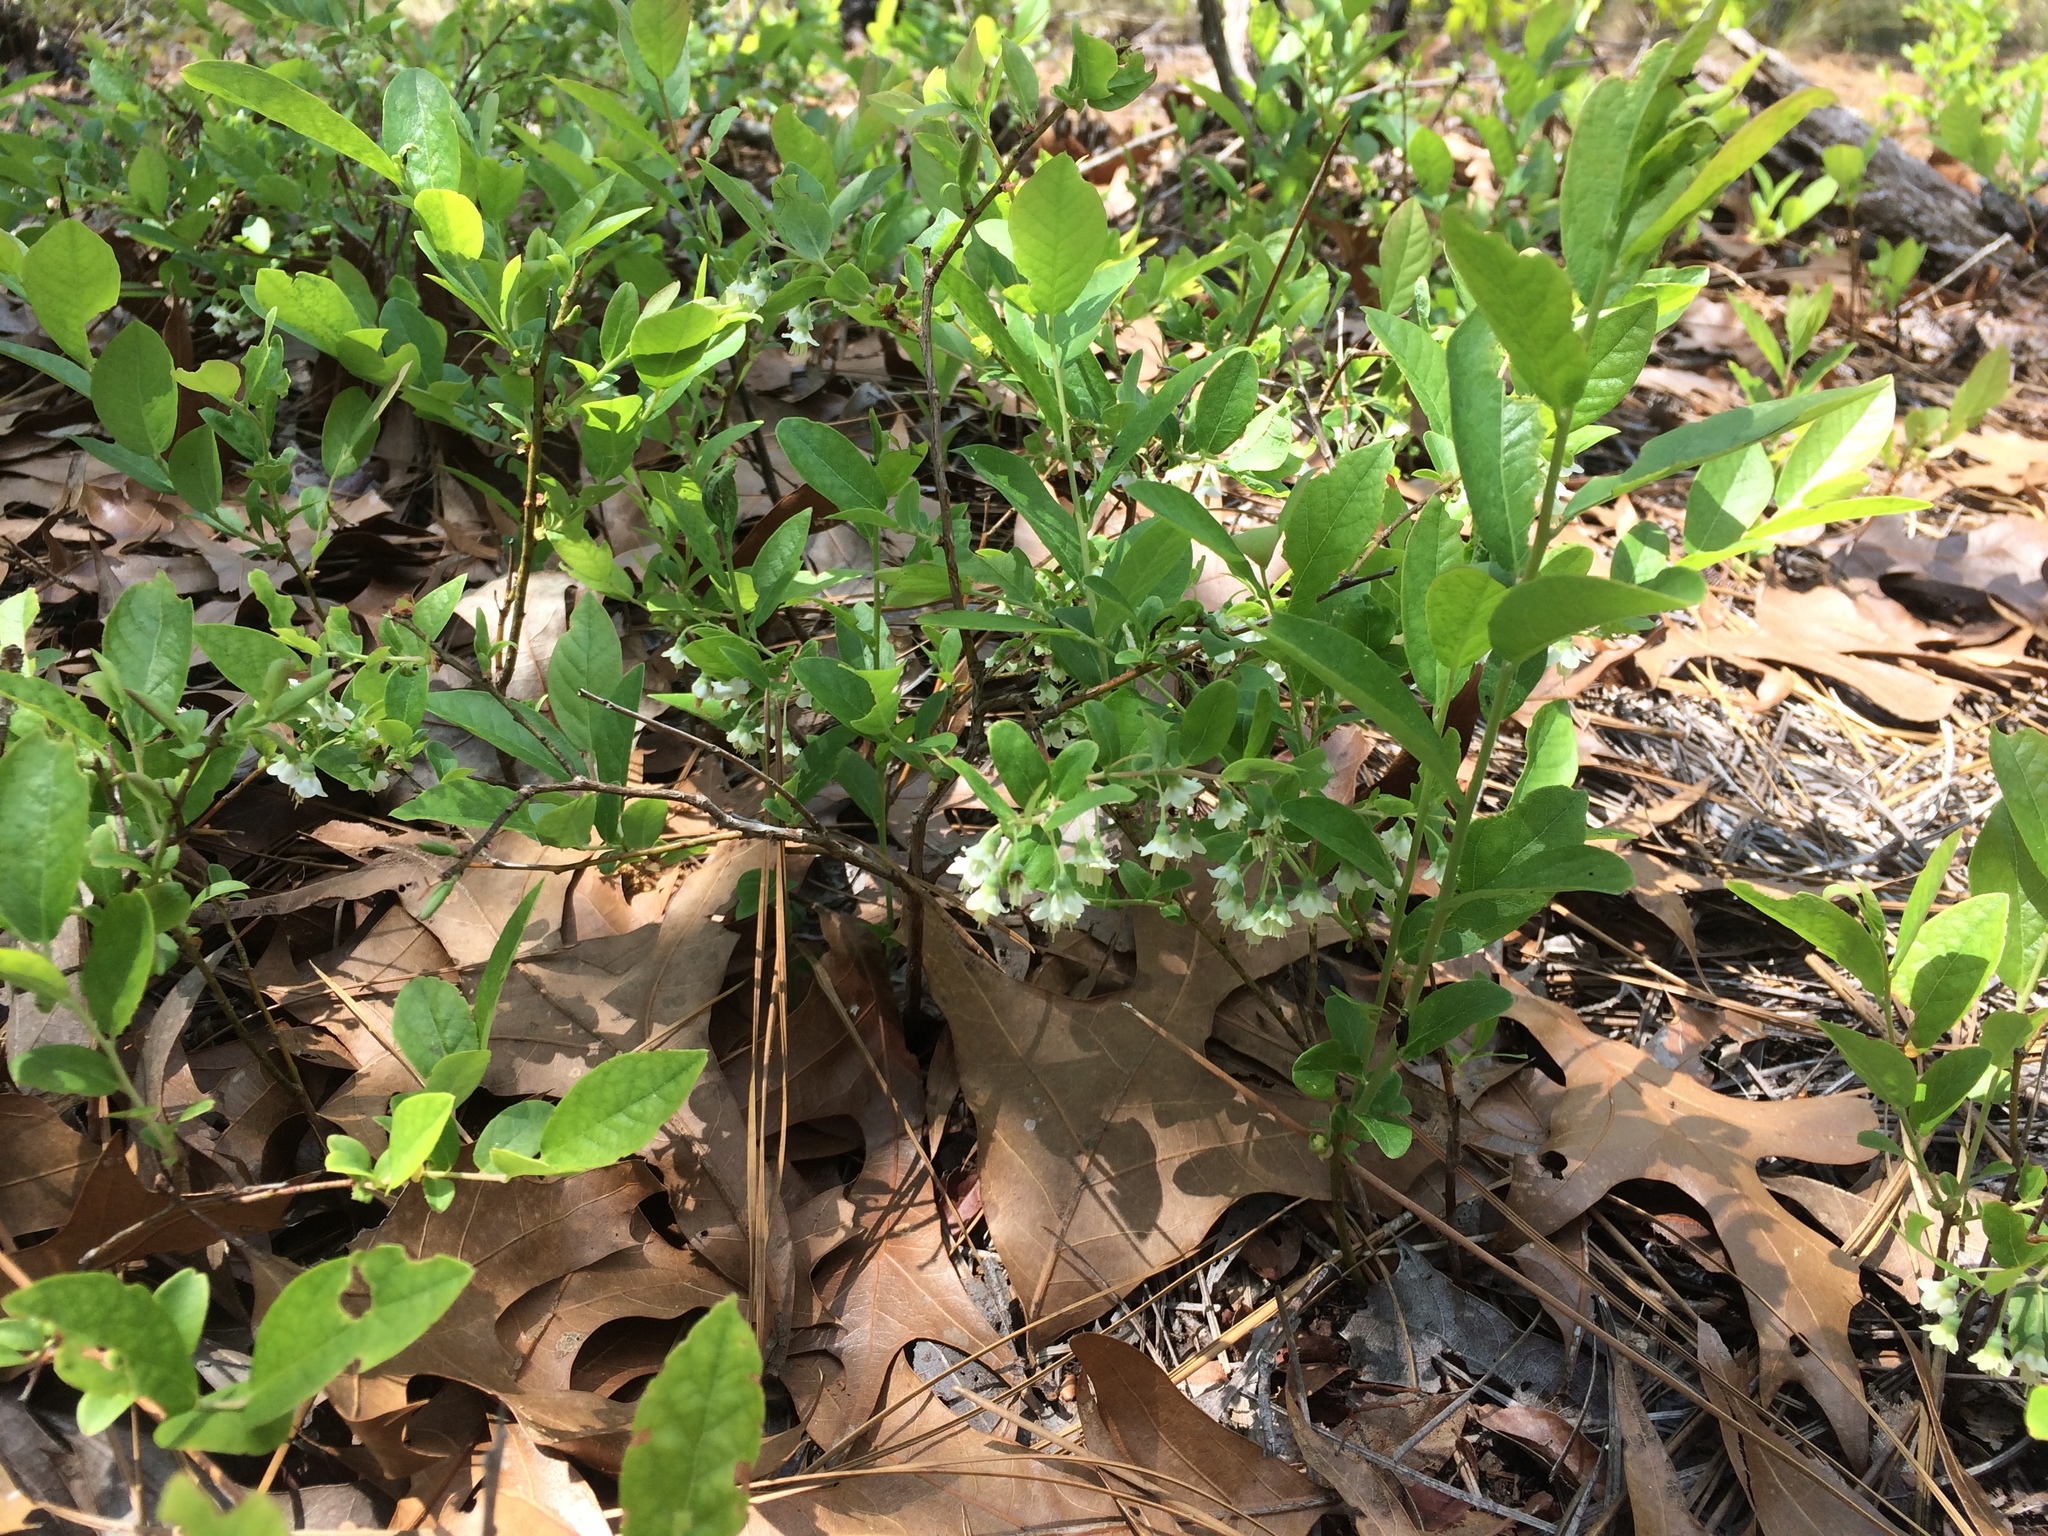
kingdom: Plantae
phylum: Tracheophyta
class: Magnoliopsida
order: Ericales
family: Ericaceae
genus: Vaccinium
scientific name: Vaccinium stamineum
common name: Deerberry
